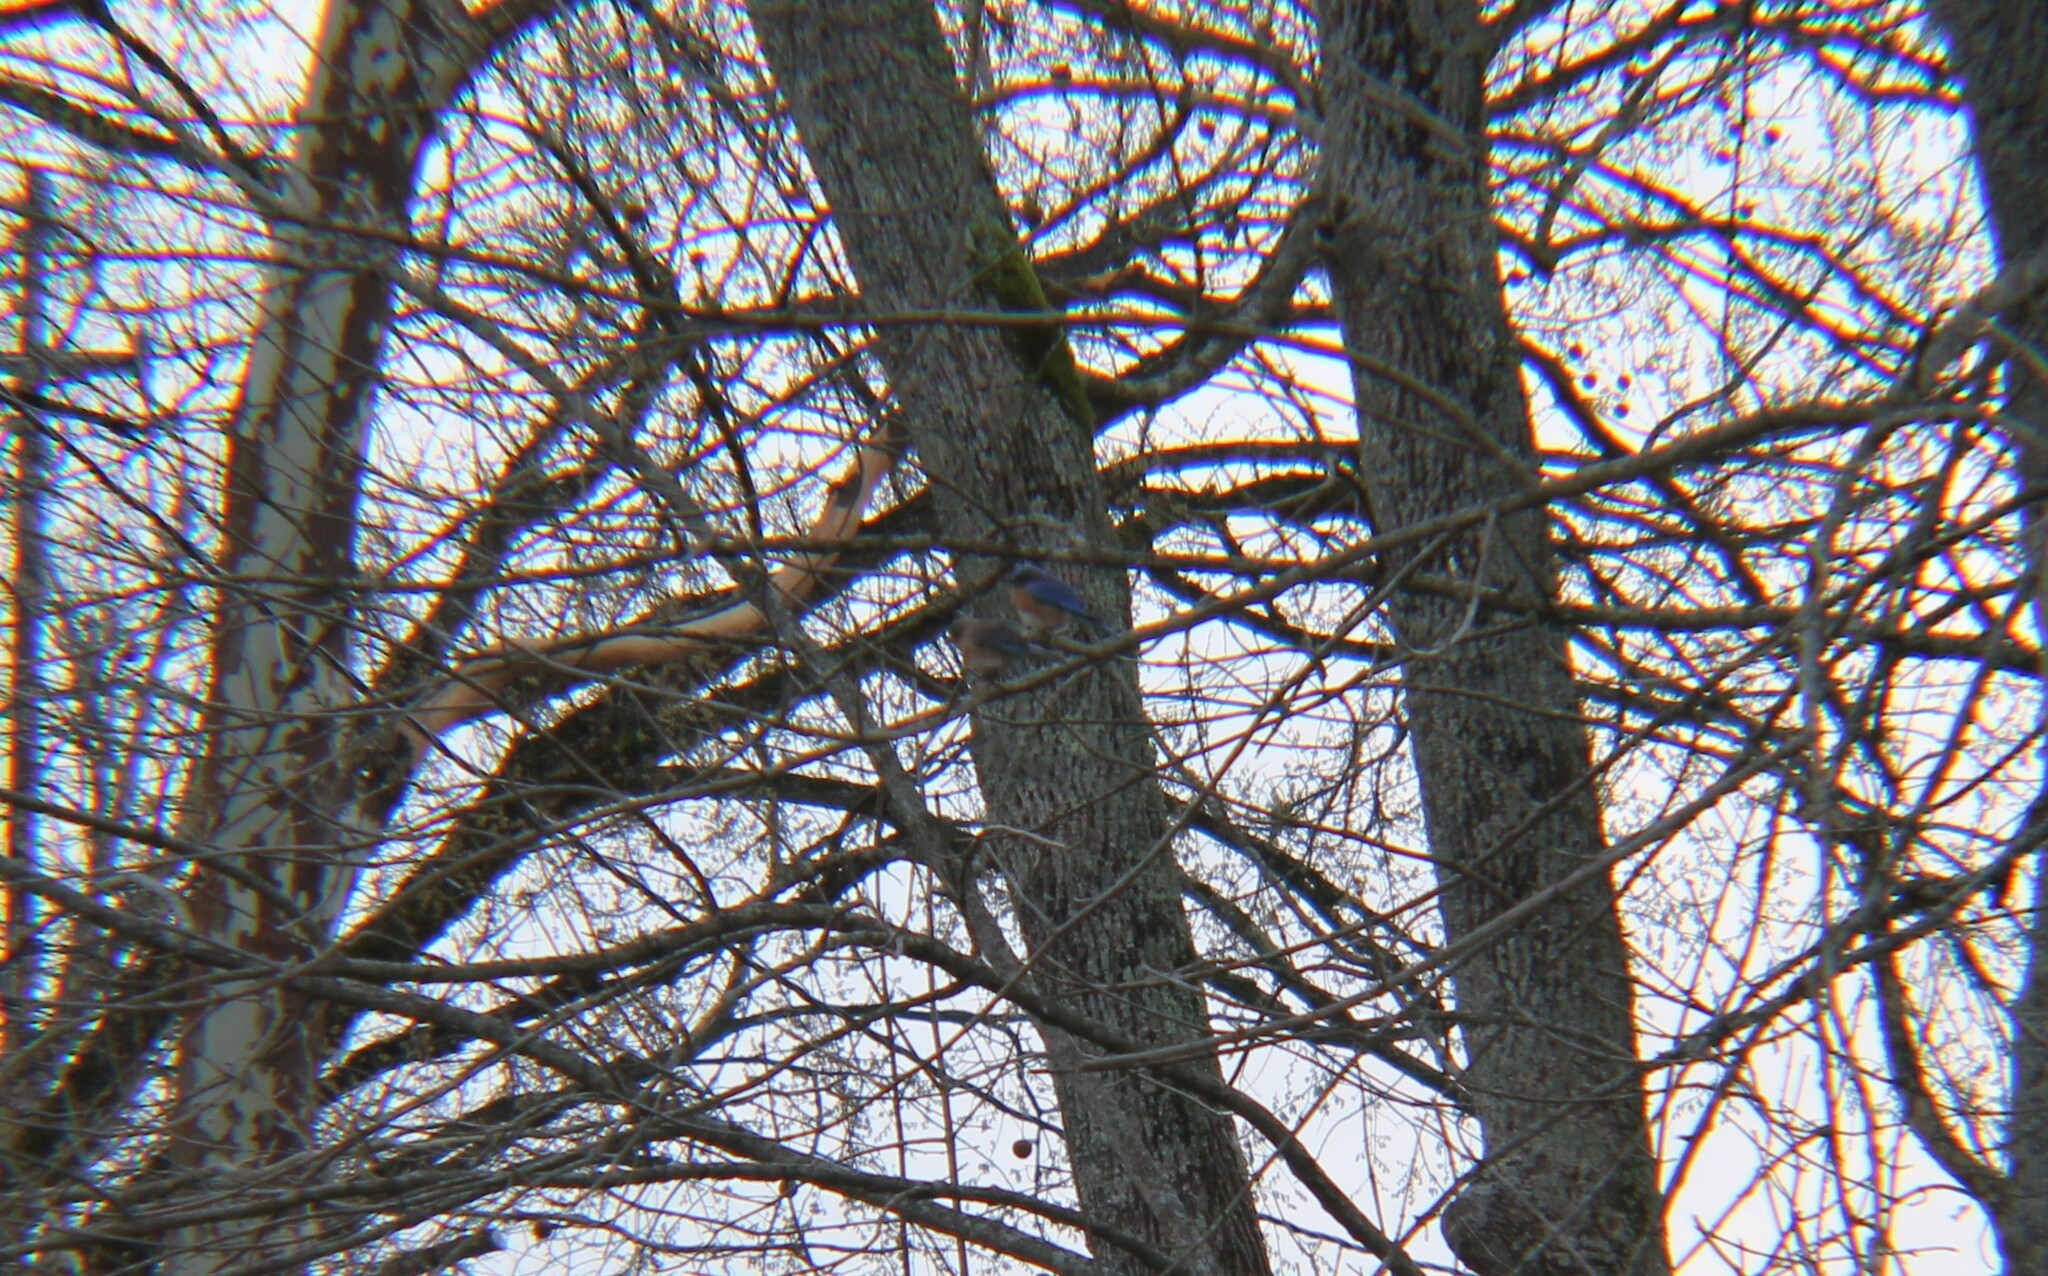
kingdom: Animalia
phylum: Chordata
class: Aves
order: Passeriformes
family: Turdidae
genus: Sialia
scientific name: Sialia sialis
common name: Eastern bluebird
